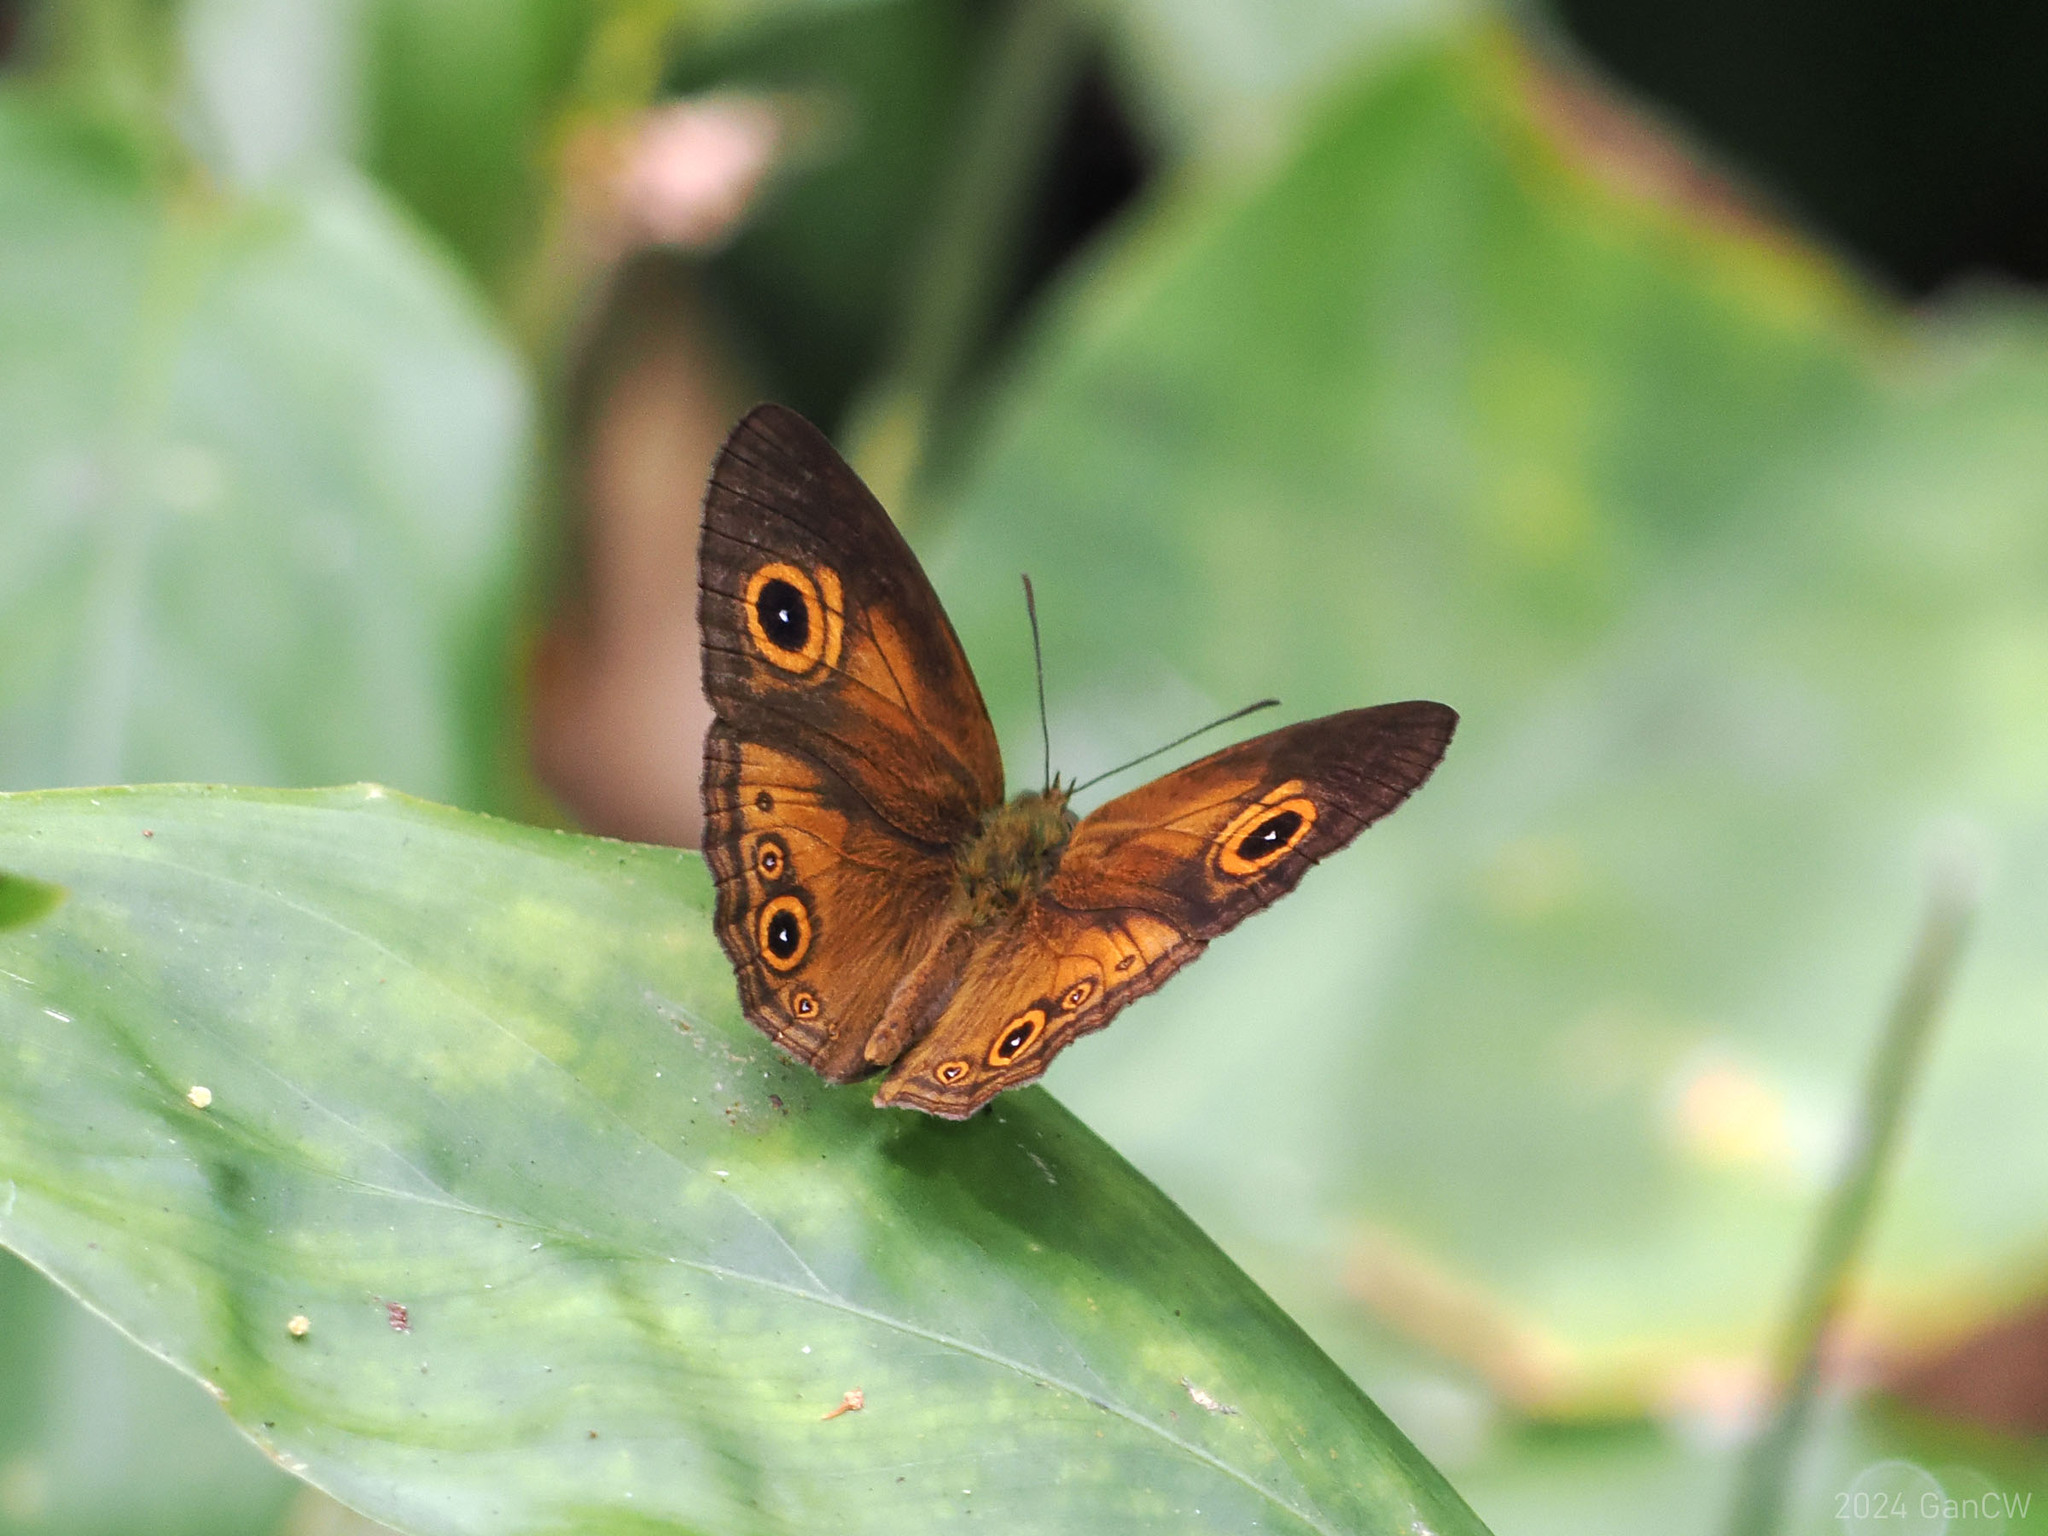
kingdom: Animalia
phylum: Arthropoda
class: Insecta
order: Lepidoptera
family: Nymphalidae
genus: Mycalesis
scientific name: Mycalesis ita
